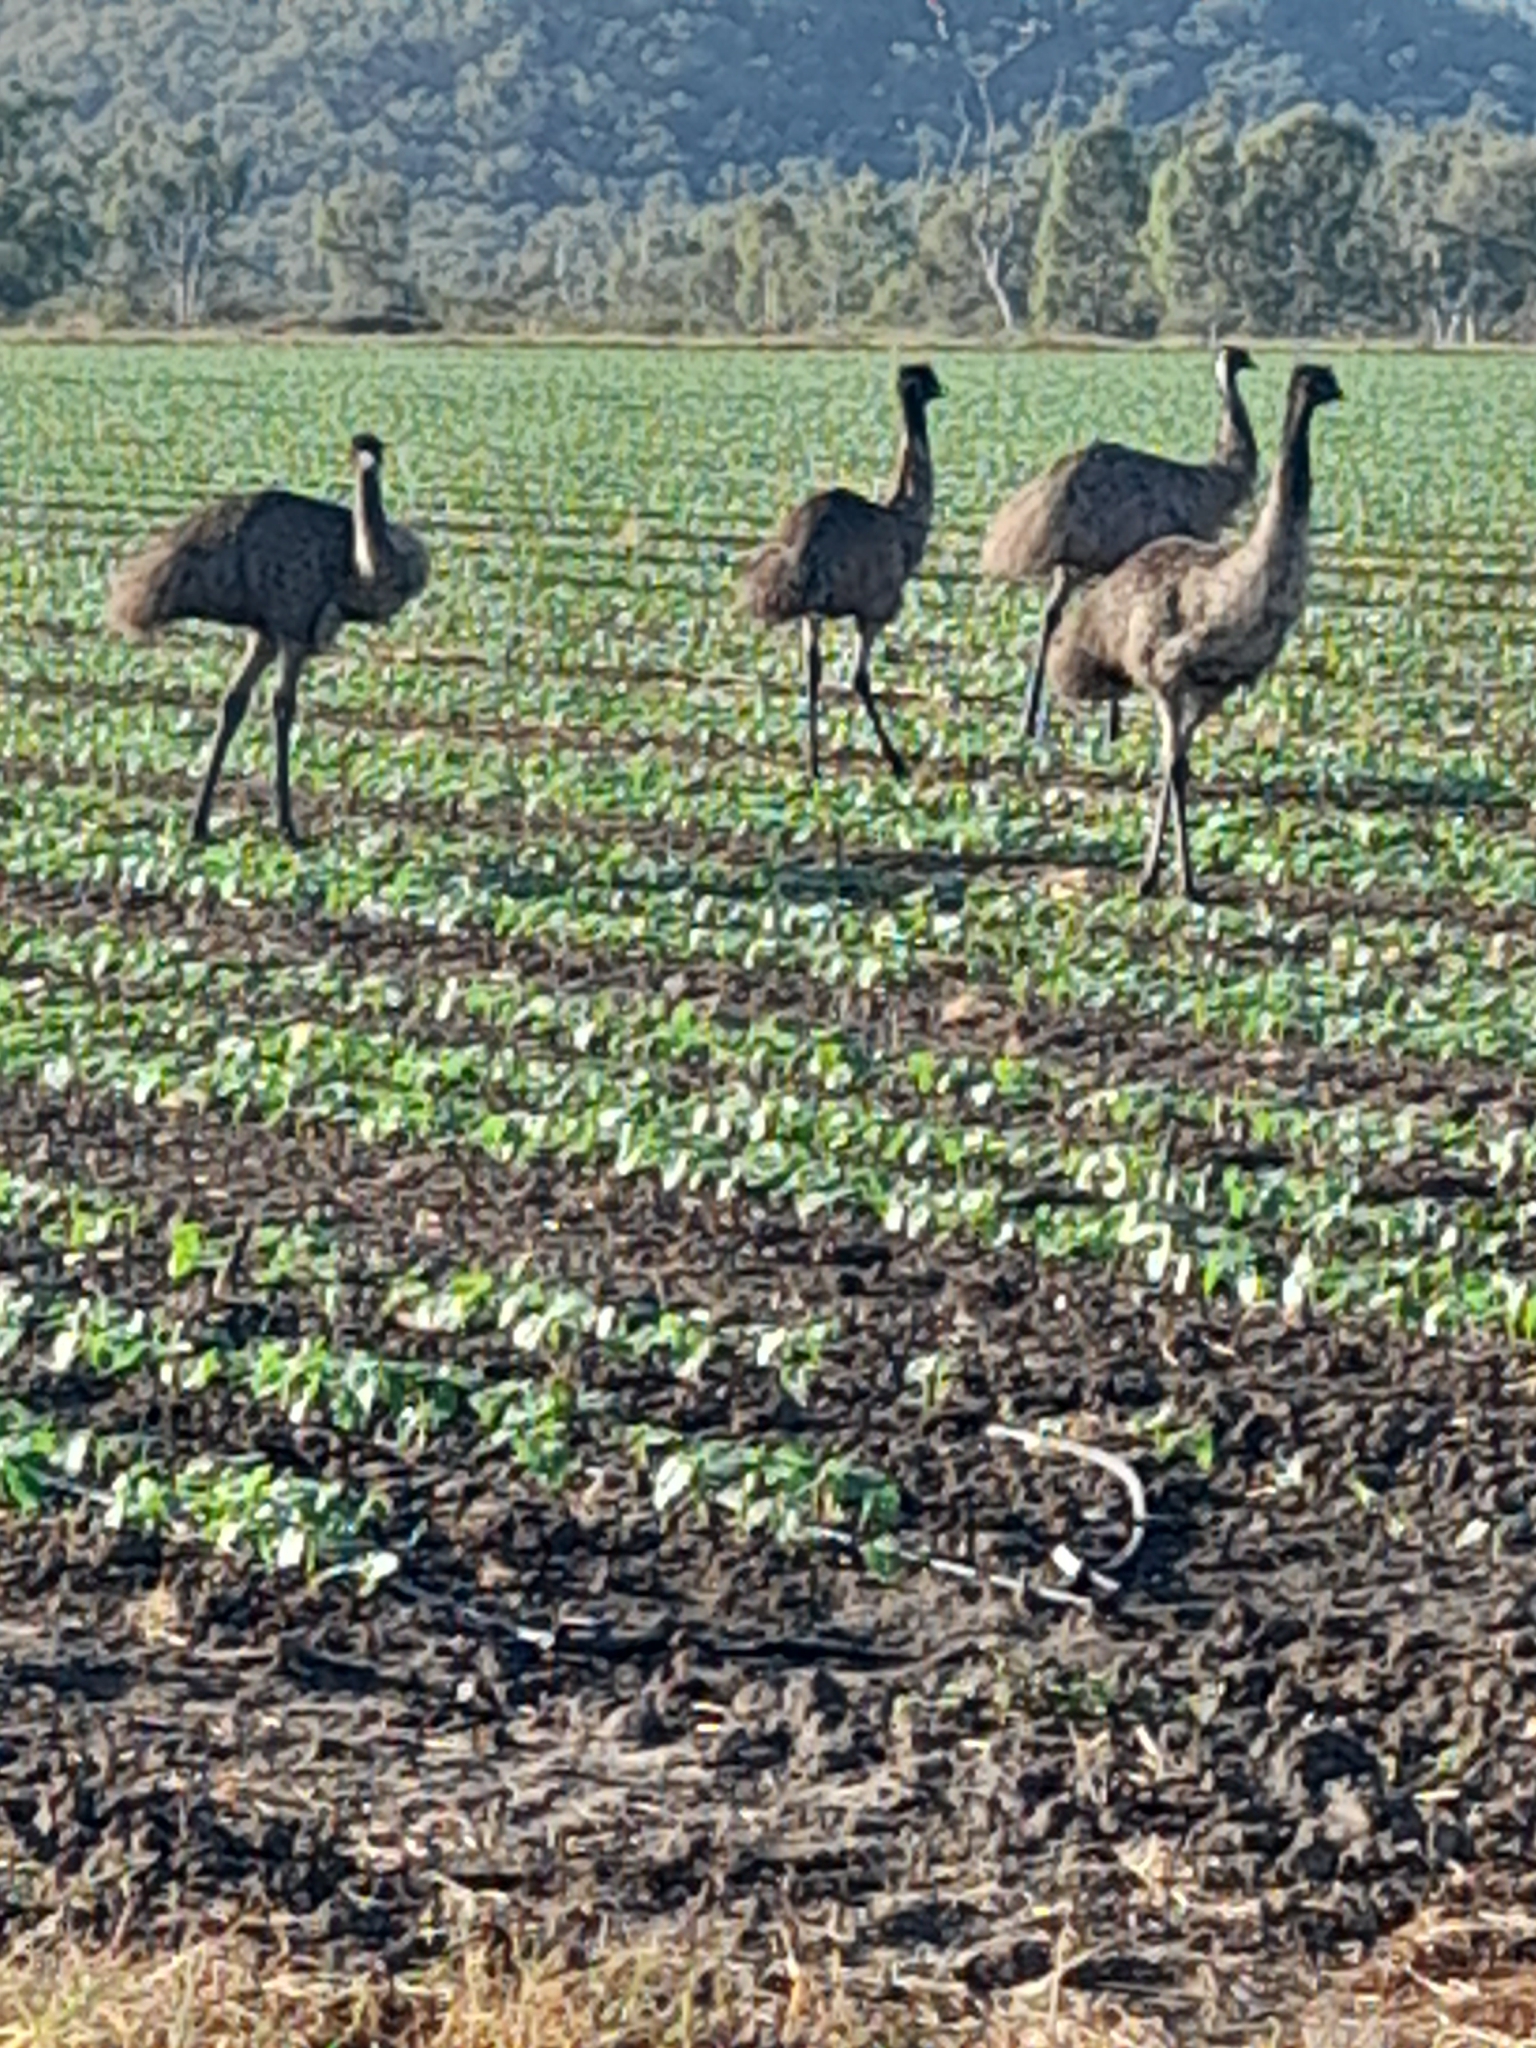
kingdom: Animalia
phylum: Chordata
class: Aves
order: Casuariiformes
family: Dromaiidae
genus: Dromaius
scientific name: Dromaius novaehollandiae
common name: Emu
